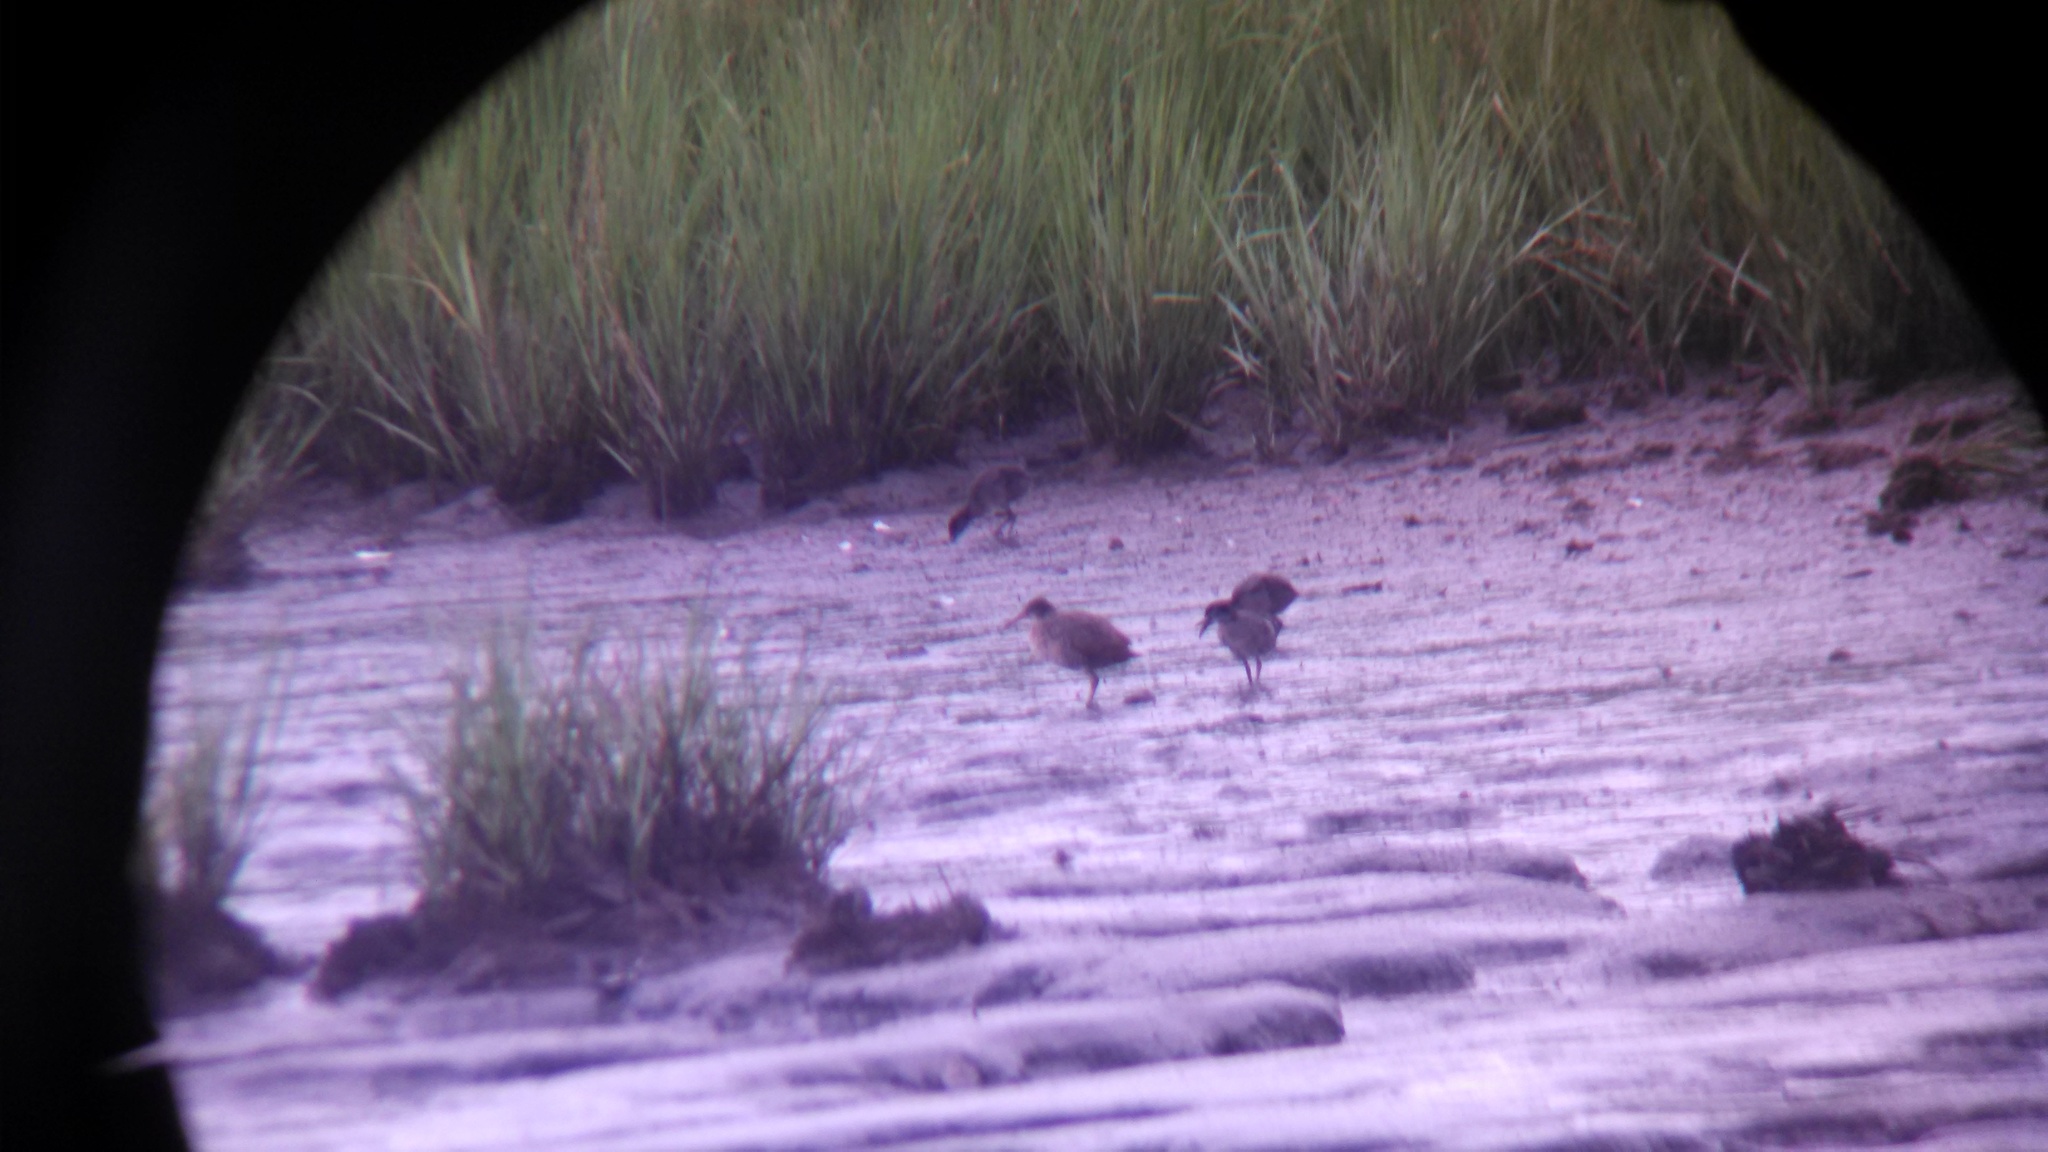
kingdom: Animalia
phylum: Chordata
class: Aves
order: Gruiformes
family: Rallidae
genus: Rallus
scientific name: Rallus crepitans
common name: Clapper rail
